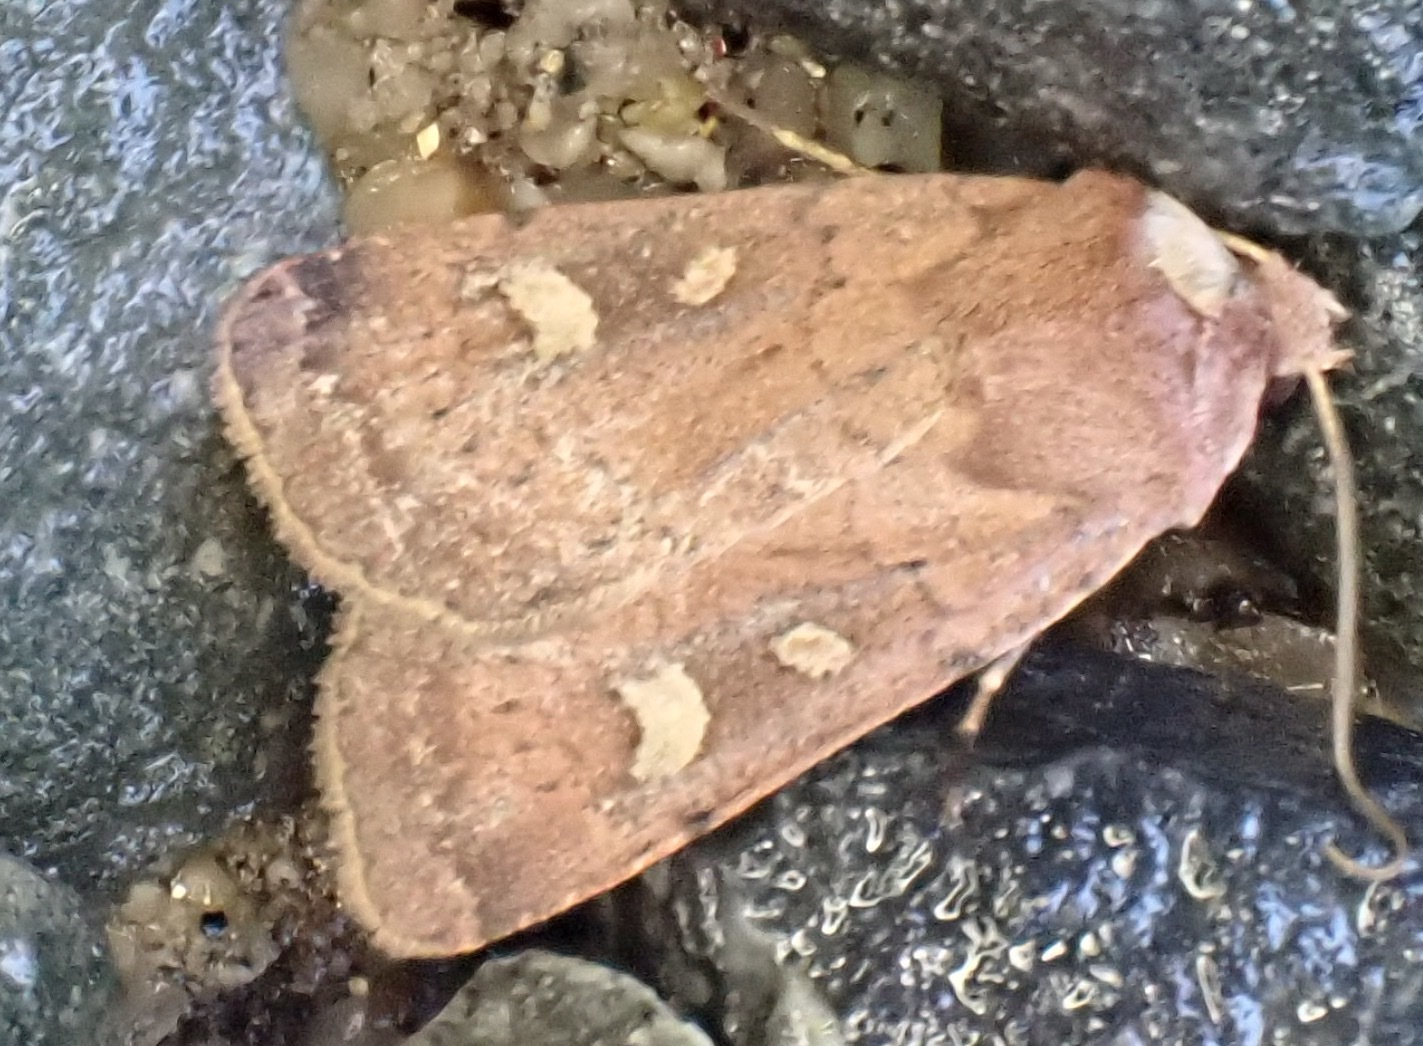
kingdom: Animalia
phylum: Arthropoda
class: Insecta
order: Lepidoptera
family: Noctuidae
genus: Xestia
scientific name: Xestia xanthographa
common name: Square-spot rustic
